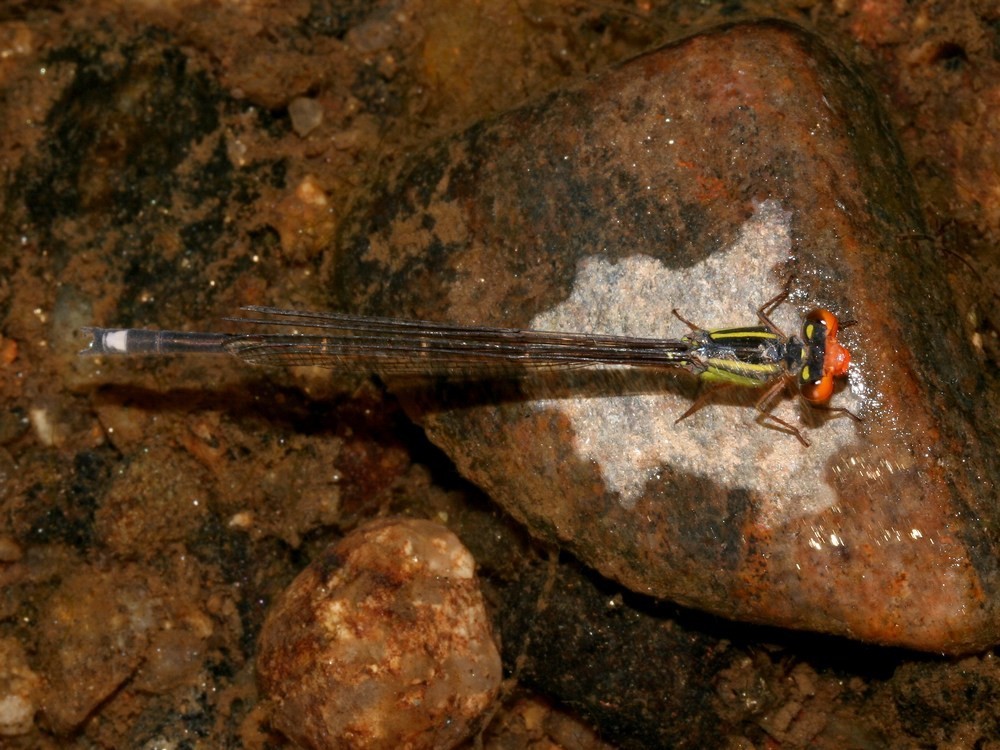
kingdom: Animalia
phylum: Arthropoda
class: Insecta
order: Odonata
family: Coenagrionidae
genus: Pseudagrion
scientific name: Pseudagrion malgassicum
